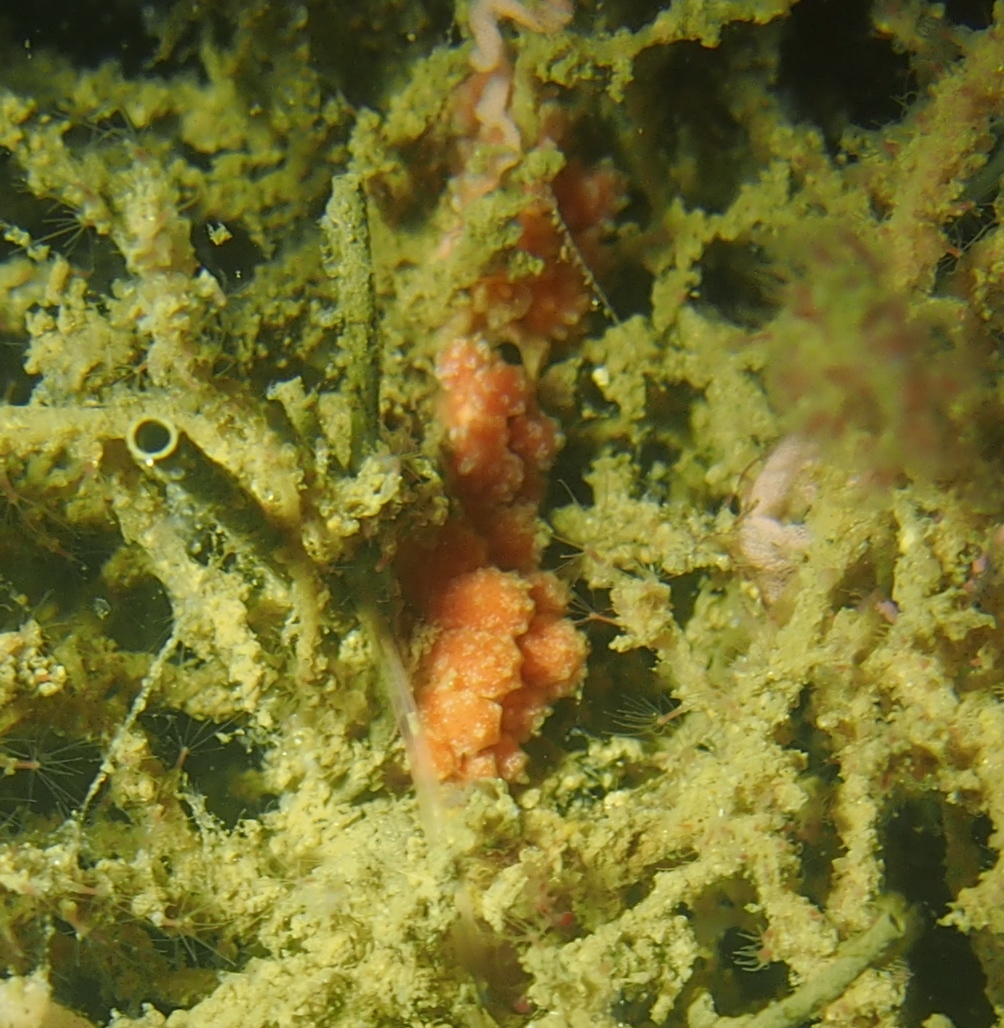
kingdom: Animalia
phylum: Mollusca
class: Gastropoda
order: Nudibranchia
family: Dotidae
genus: Doto
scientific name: Doto fragilis
